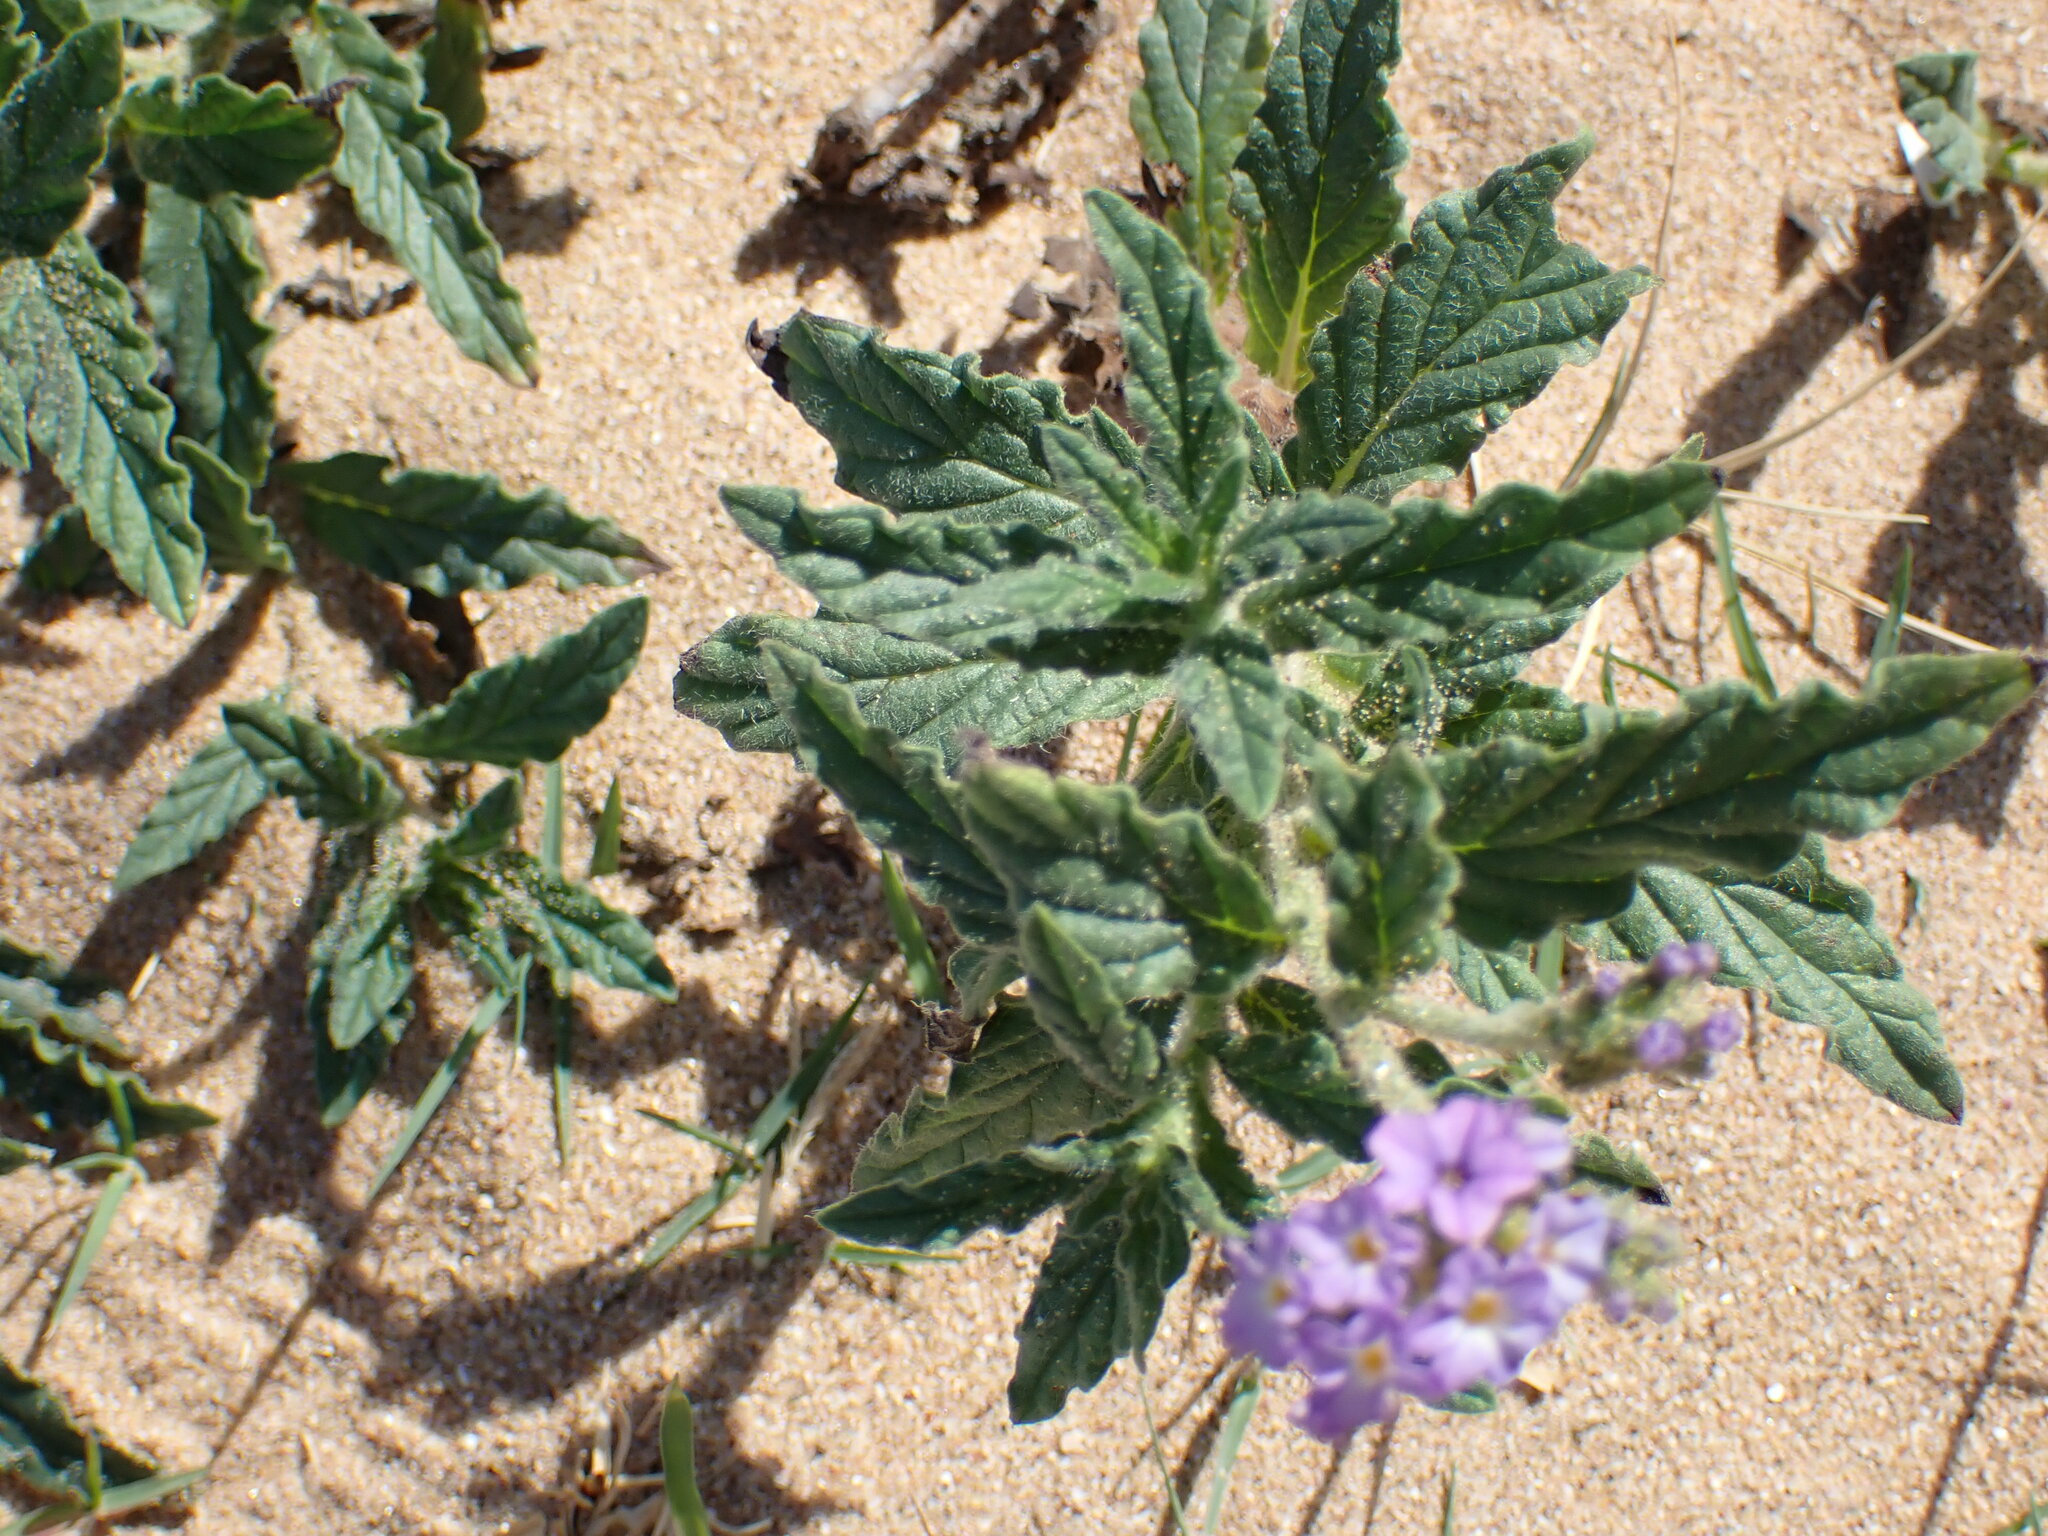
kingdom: Plantae
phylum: Tracheophyta
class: Magnoliopsida
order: Boraginales
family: Heliotropiaceae
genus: Heliotropium
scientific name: Heliotropium amplexicaule
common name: Clasping heliotrope
